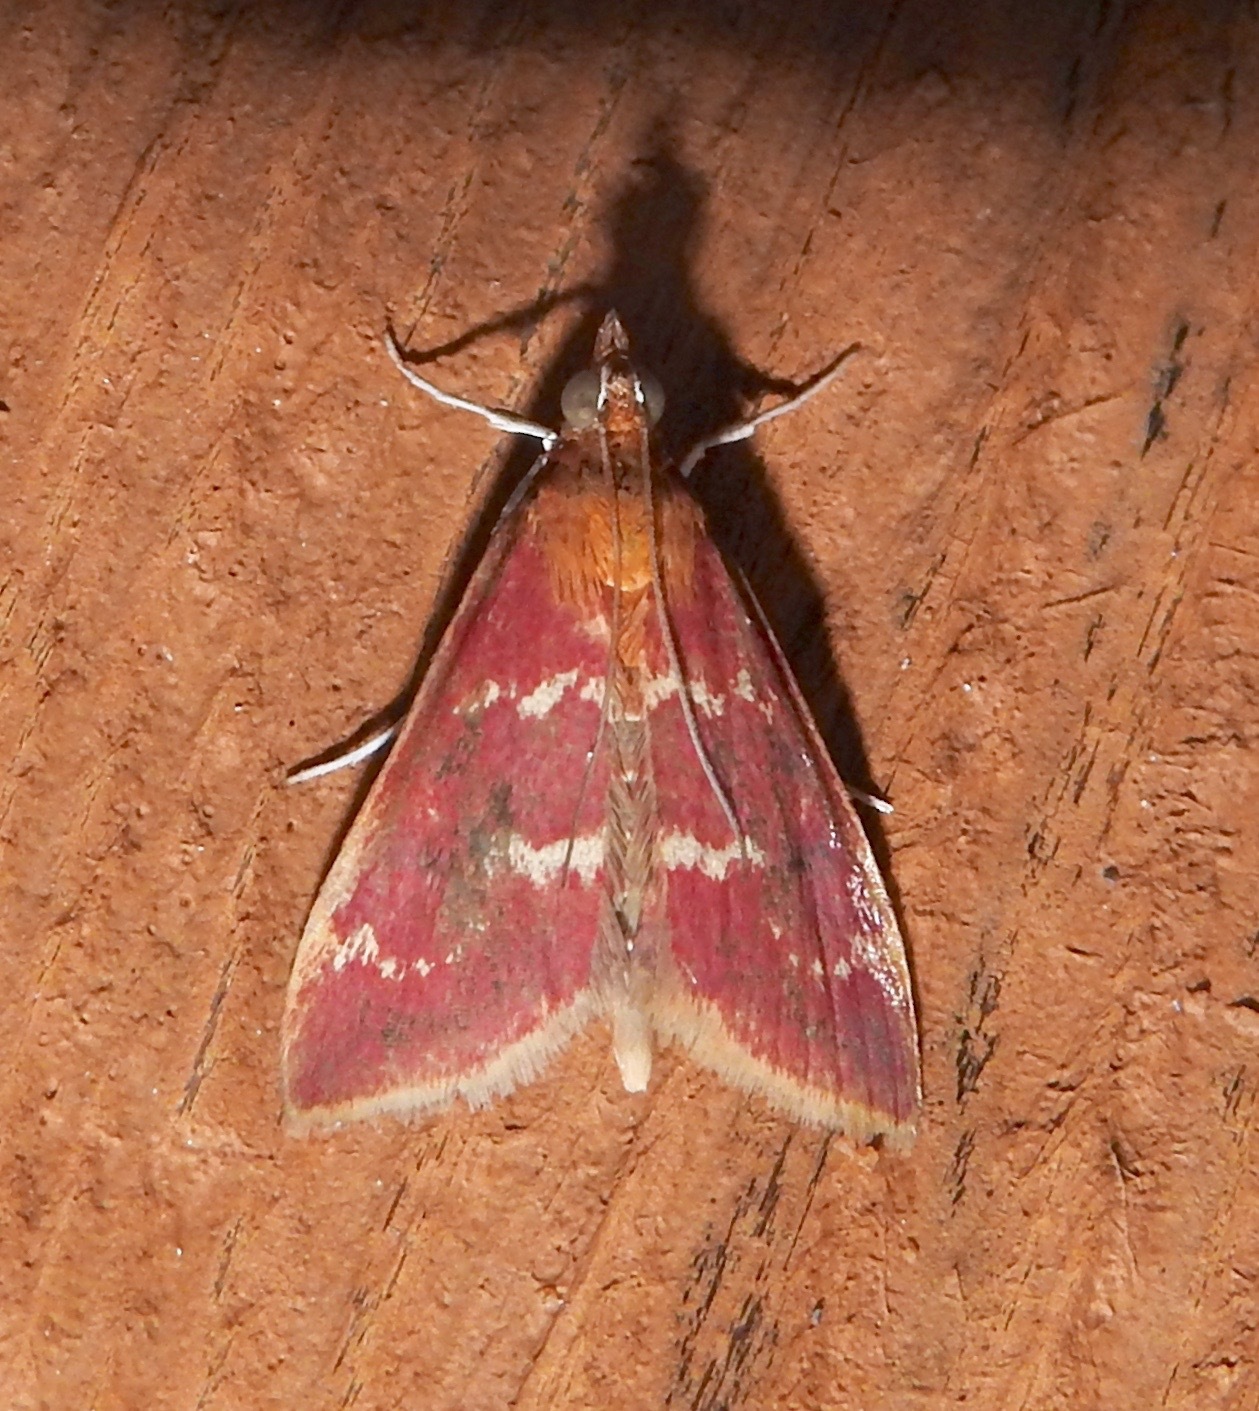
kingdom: Animalia
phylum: Arthropoda
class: Insecta
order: Lepidoptera
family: Crambidae
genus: Pyrausta
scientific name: Pyrausta signatalis
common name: Raspberry pyrausta moth
